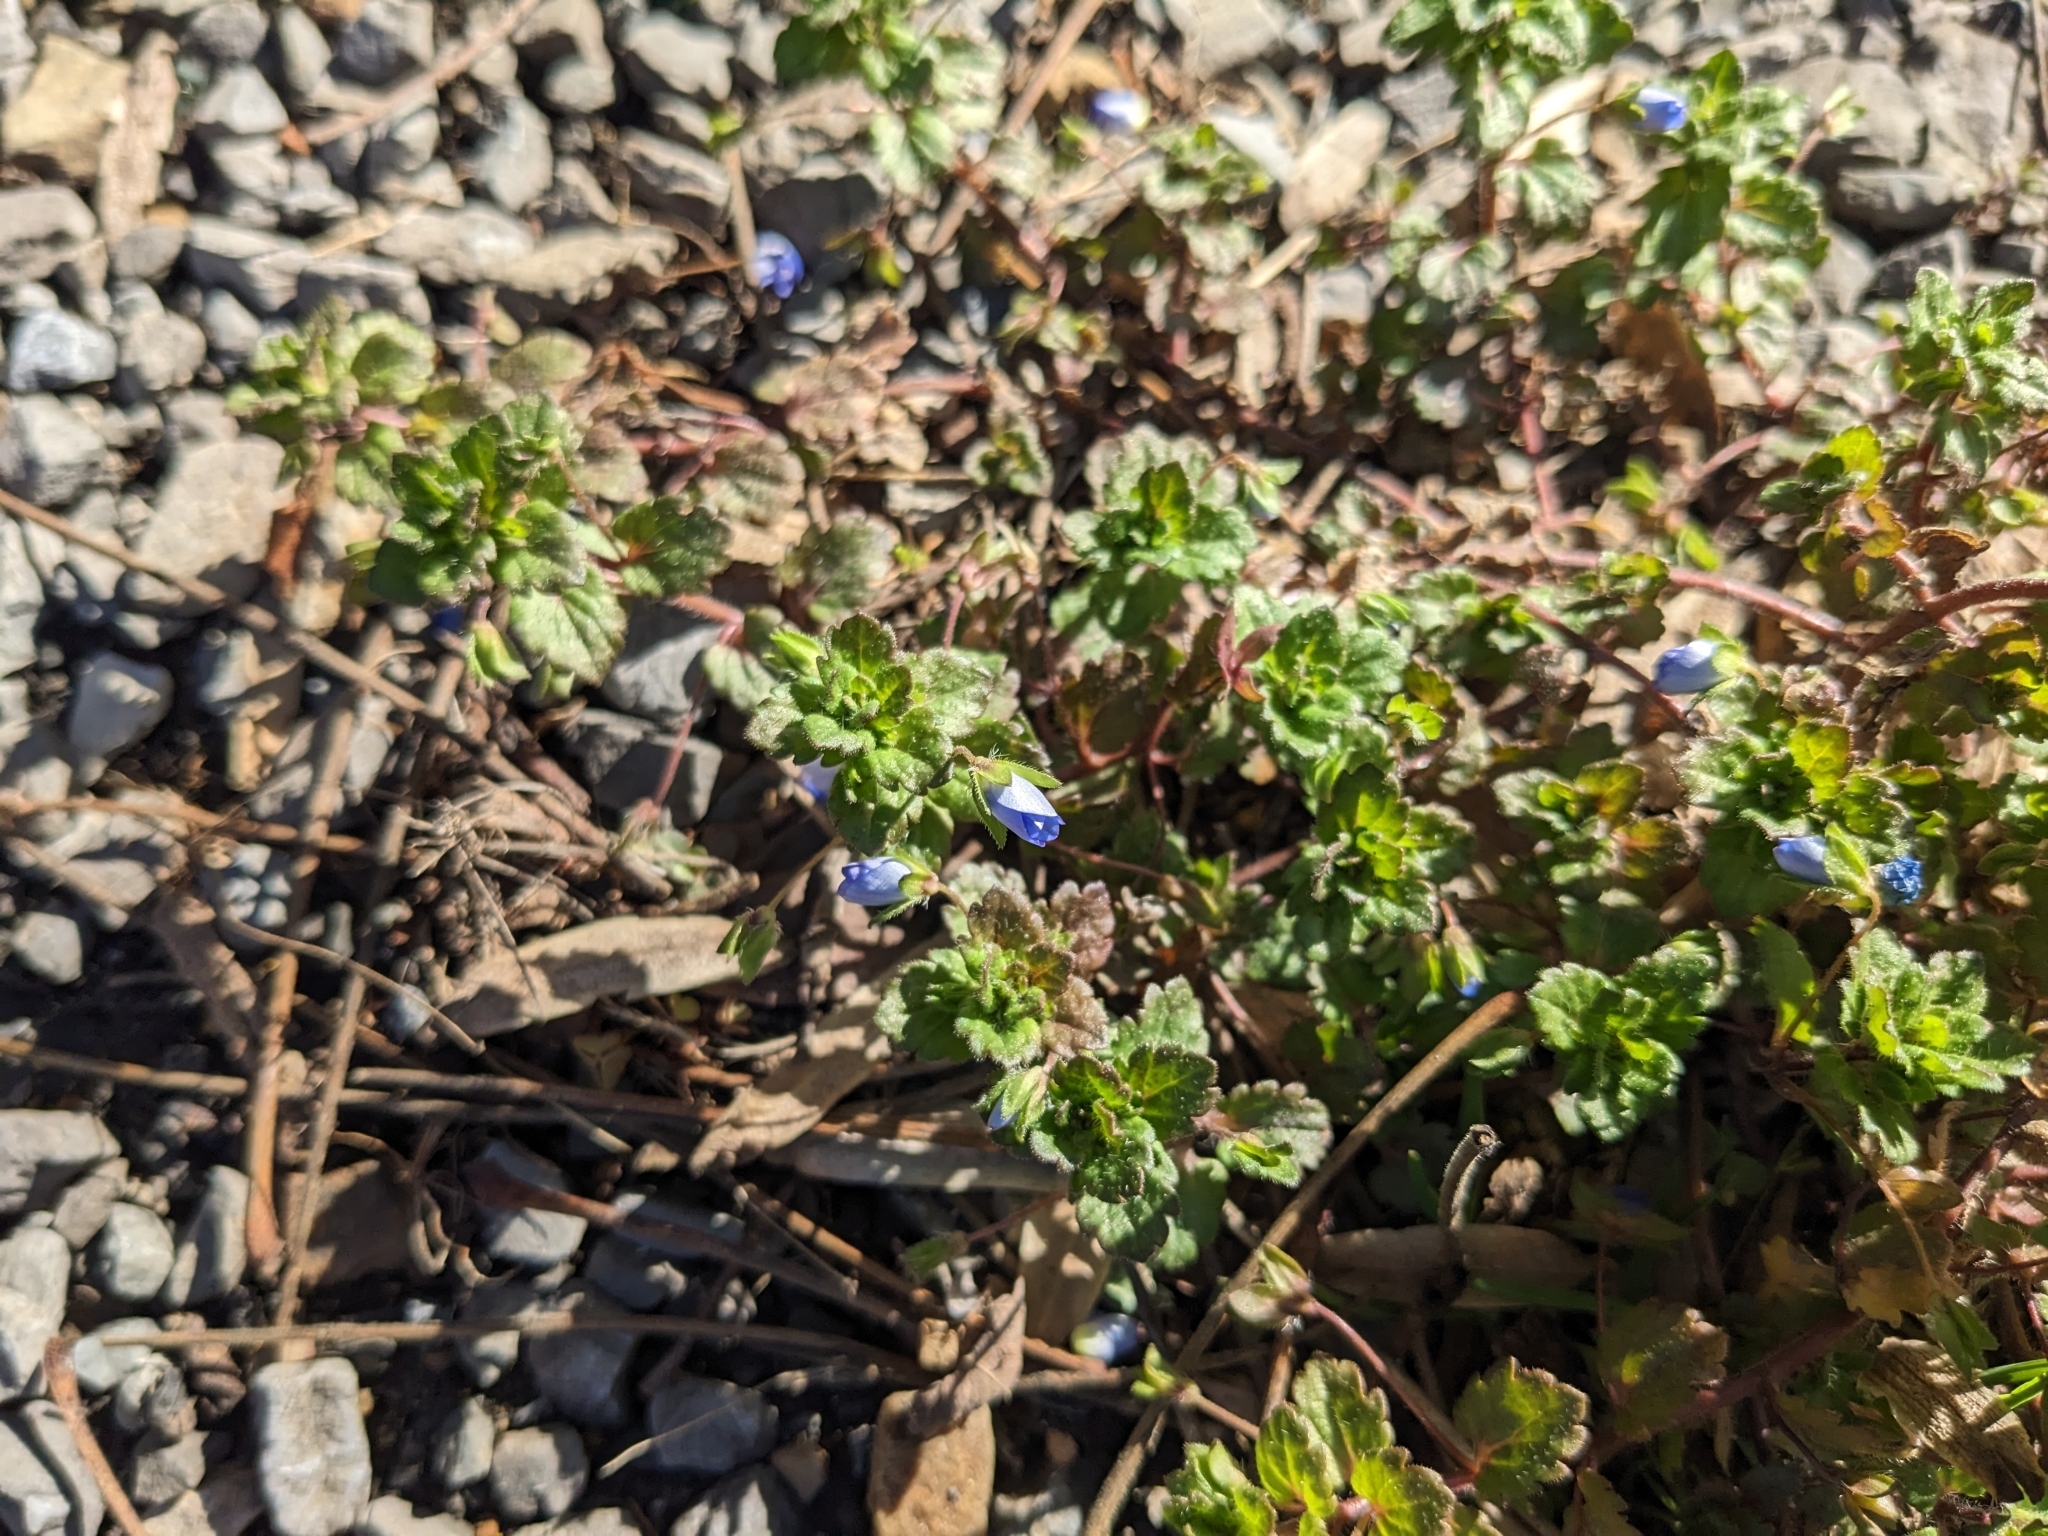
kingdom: Plantae
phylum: Tracheophyta
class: Magnoliopsida
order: Lamiales
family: Plantaginaceae
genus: Veronica
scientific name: Veronica persica
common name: Common field-speedwell
